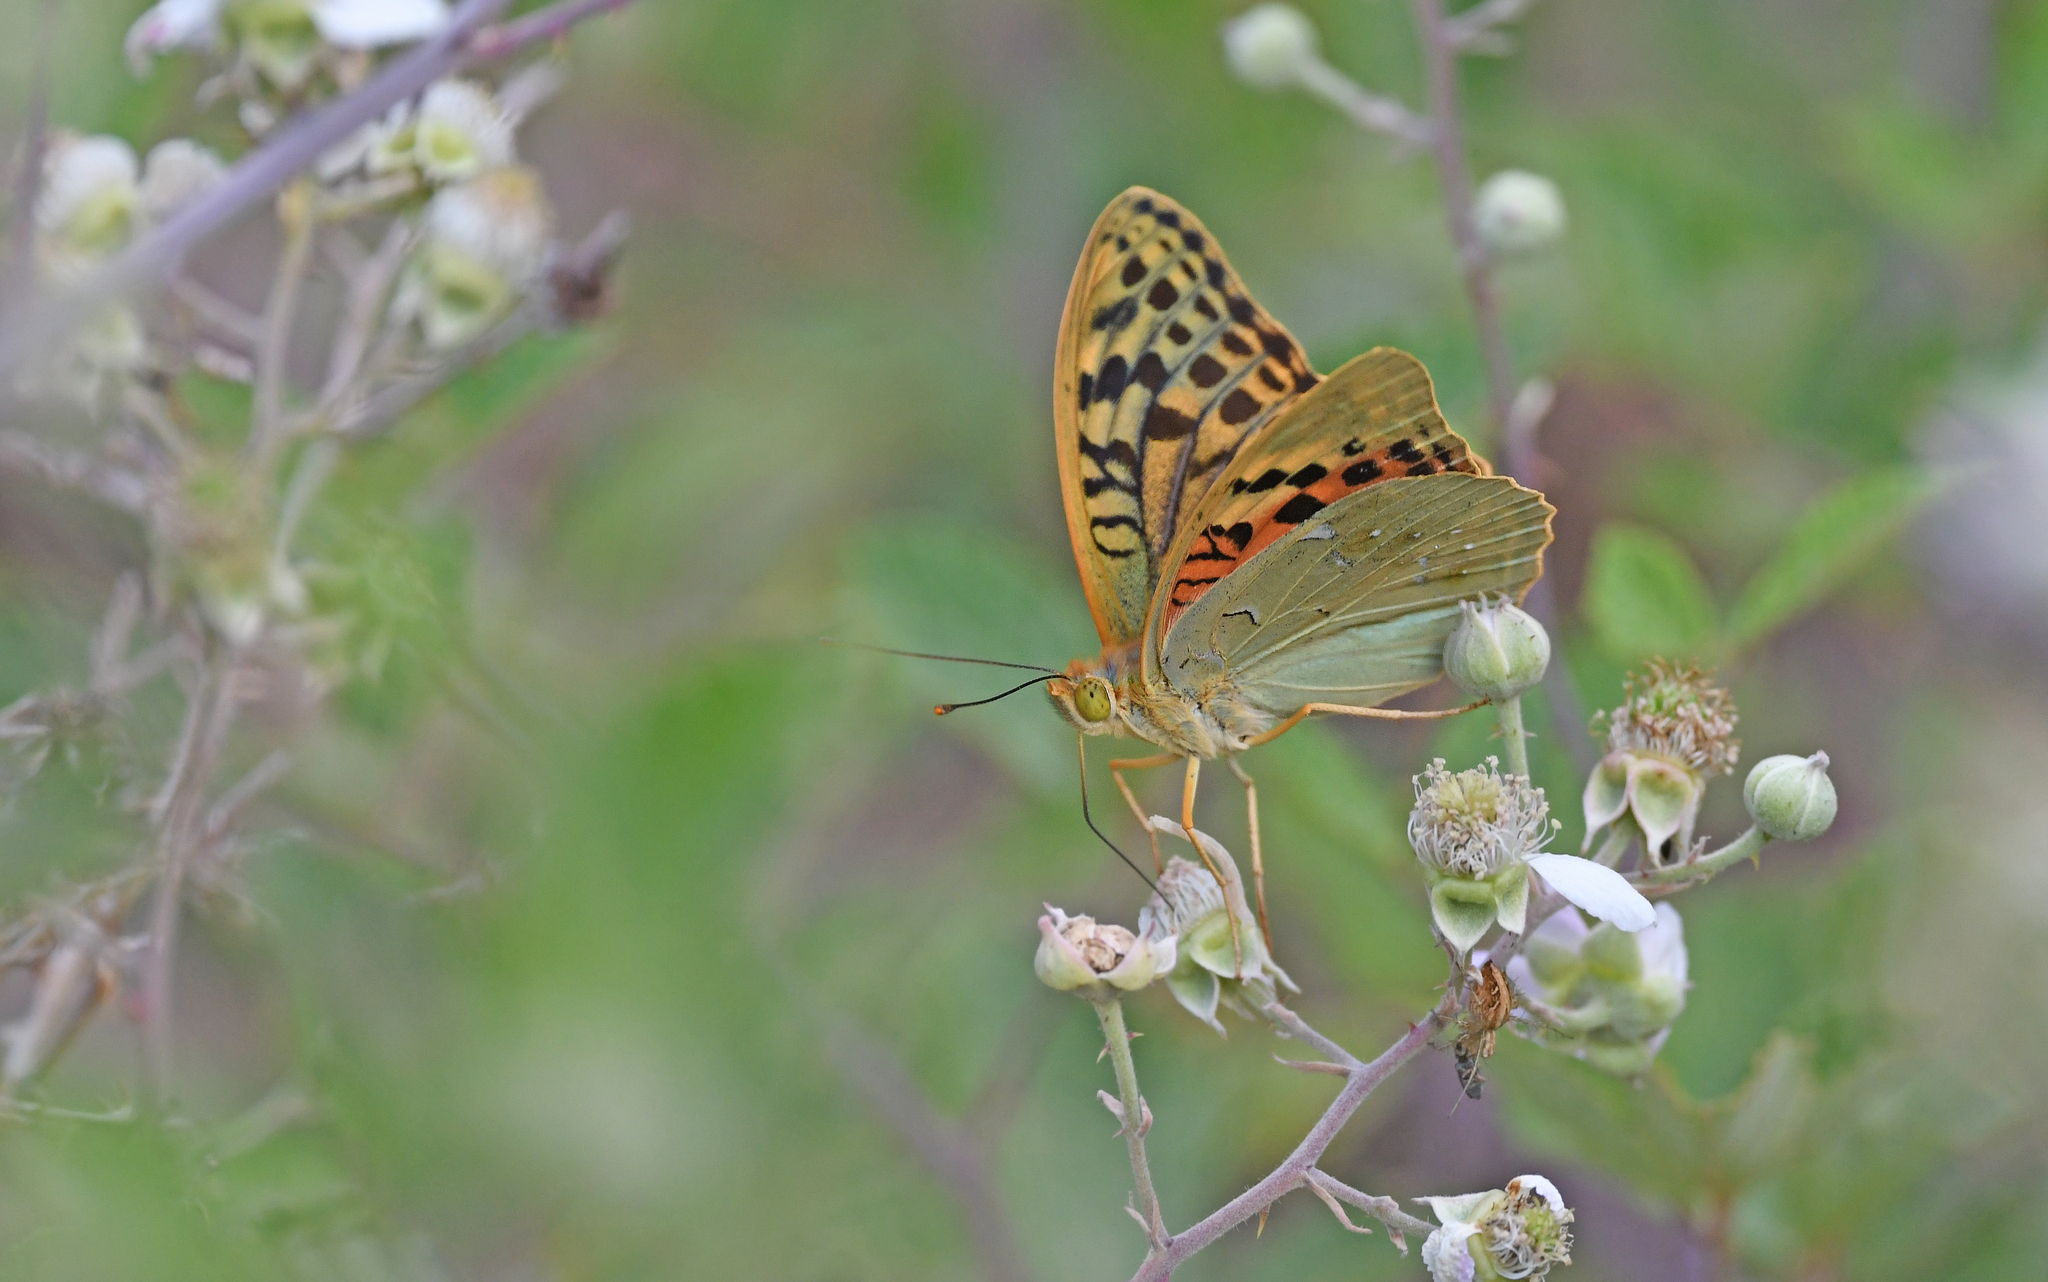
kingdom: Animalia
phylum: Arthropoda
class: Insecta
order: Lepidoptera
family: Nymphalidae
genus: Damora
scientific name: Damora pandora
